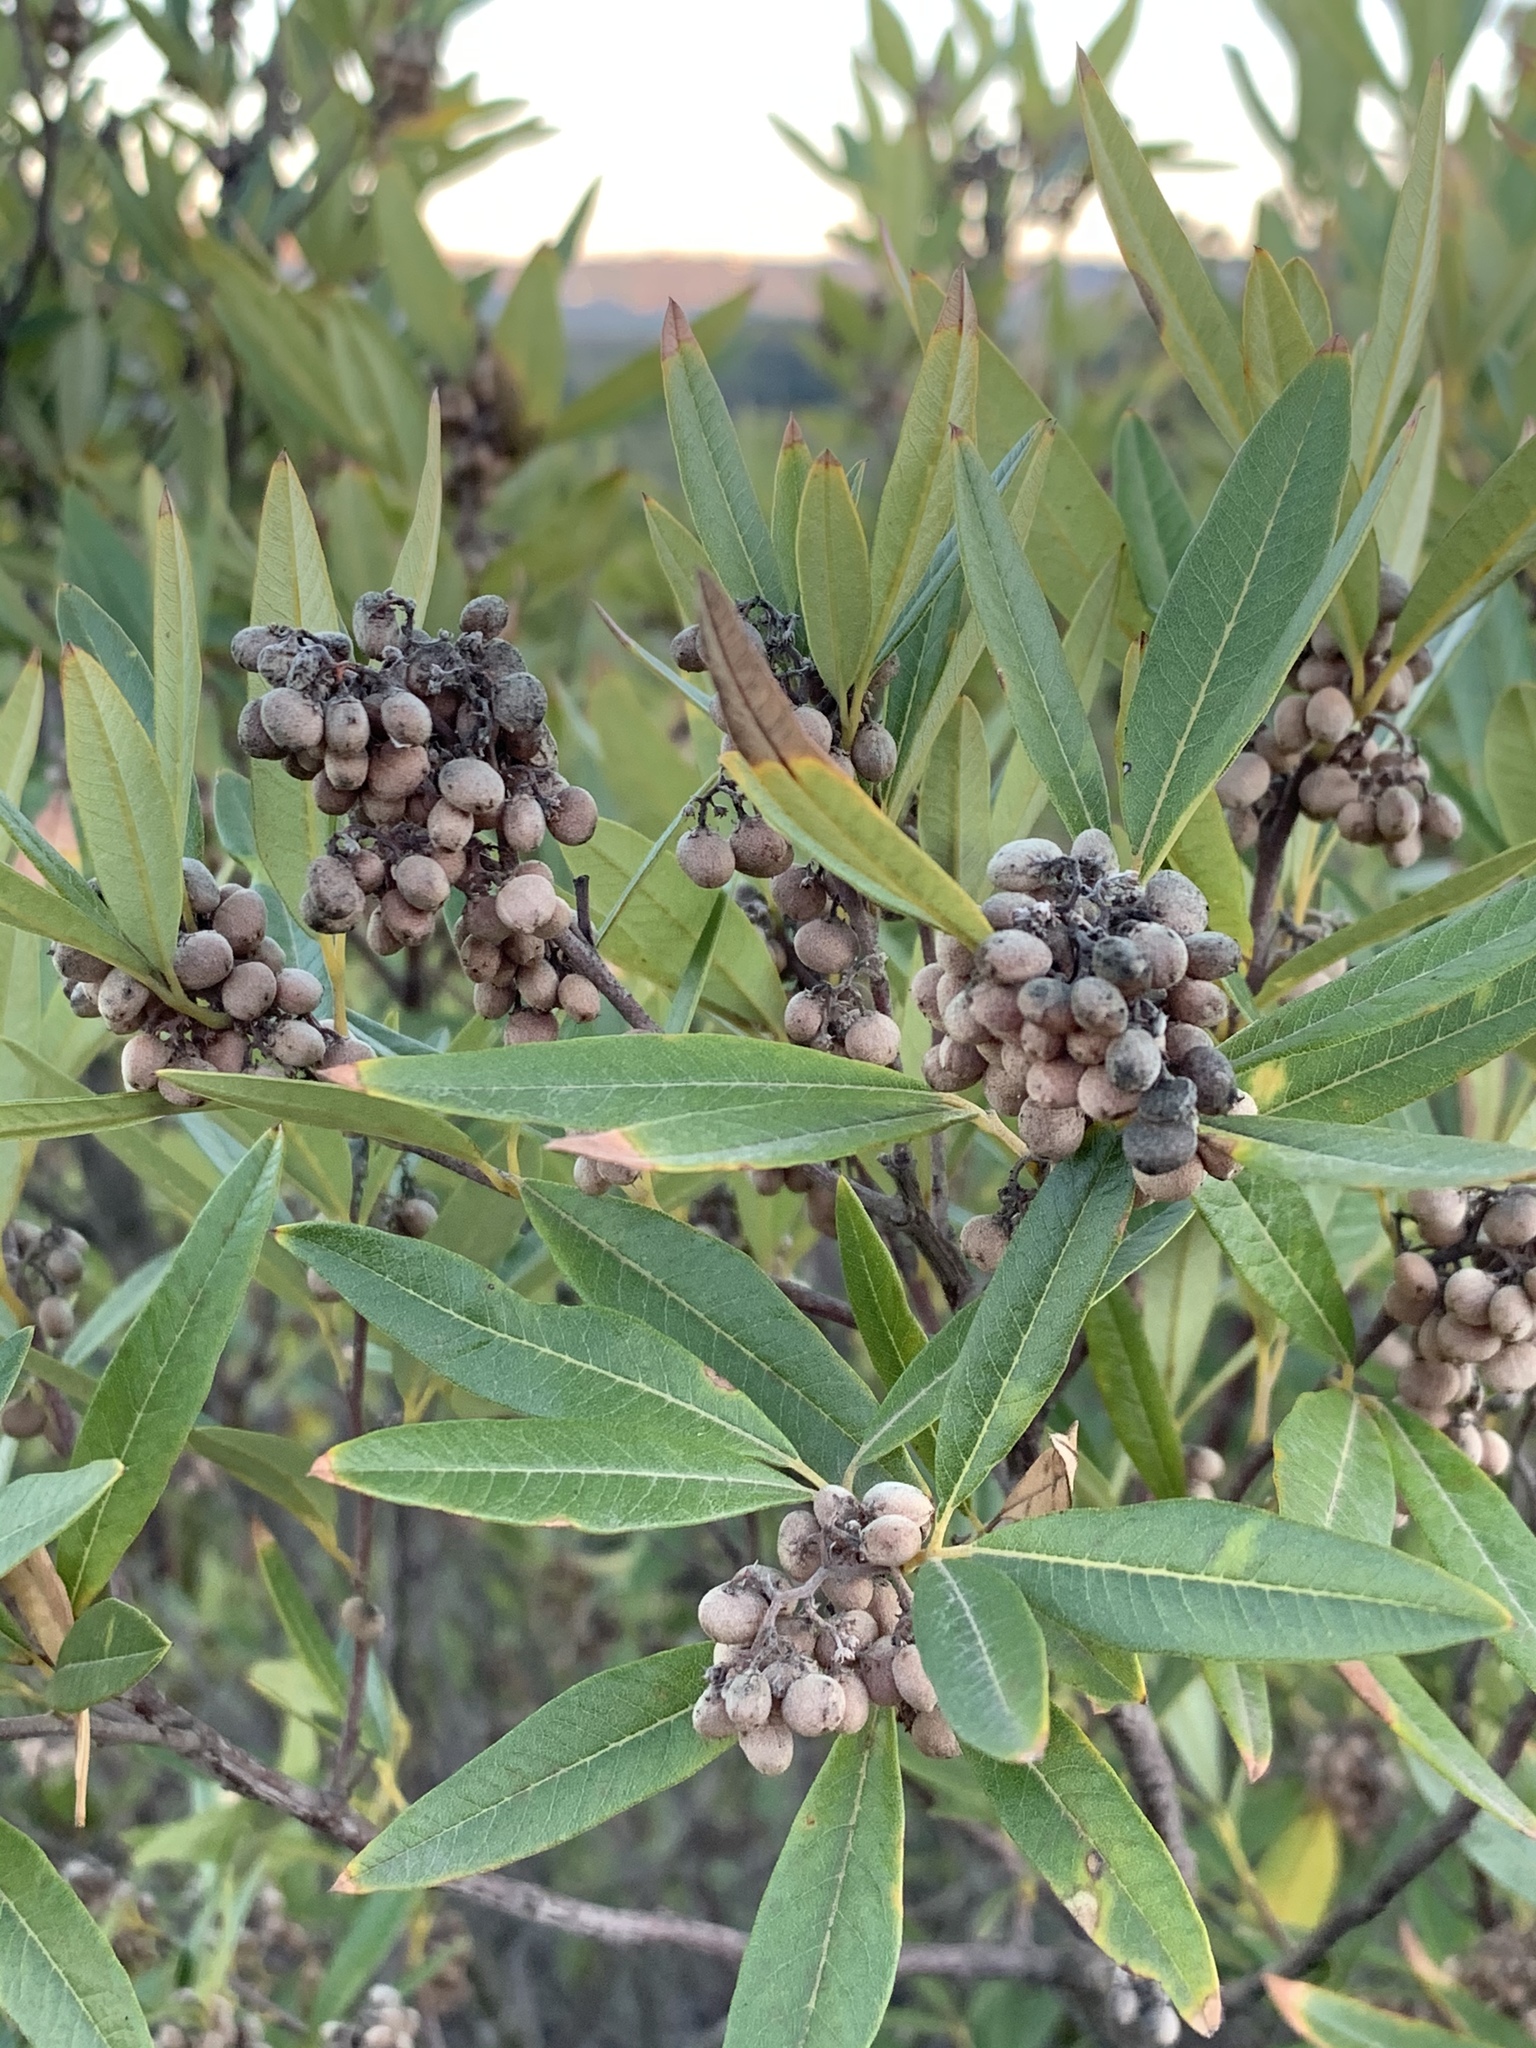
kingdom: Plantae
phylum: Tracheophyta
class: Magnoliopsida
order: Sapindales
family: Anacardiaceae
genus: Searsia
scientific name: Searsia angustifolia
